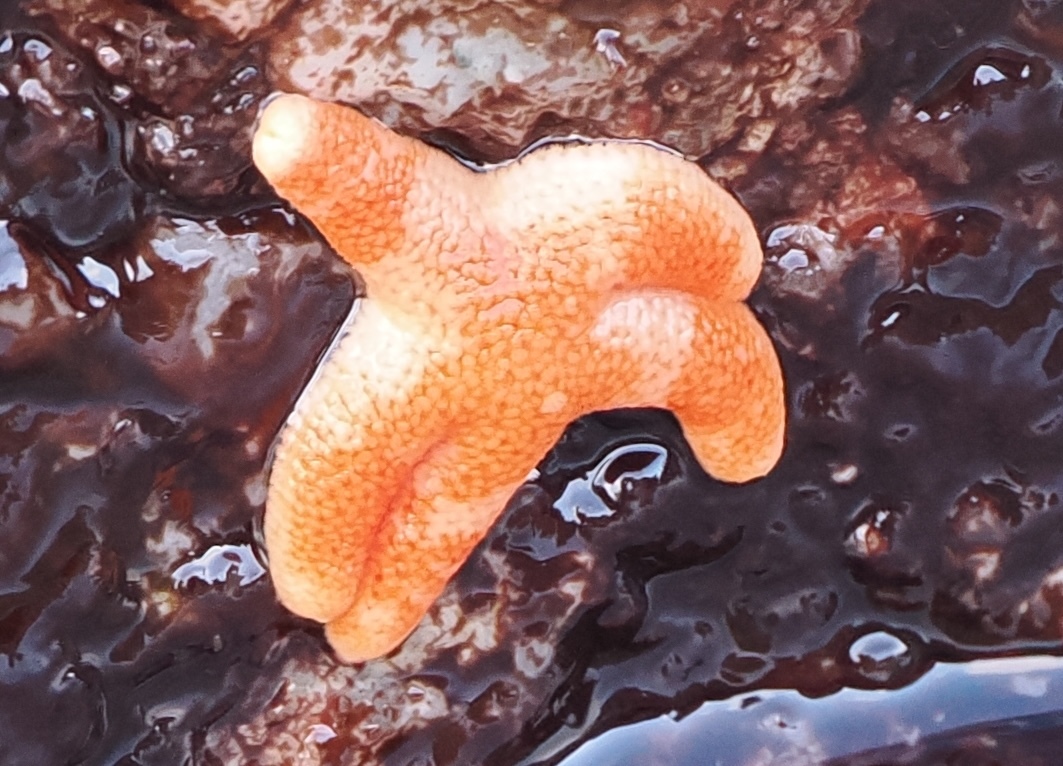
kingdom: Animalia
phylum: Echinodermata
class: Asteroidea
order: Spinulosida
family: Echinasteridae
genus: Henricia
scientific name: Henricia pumila
